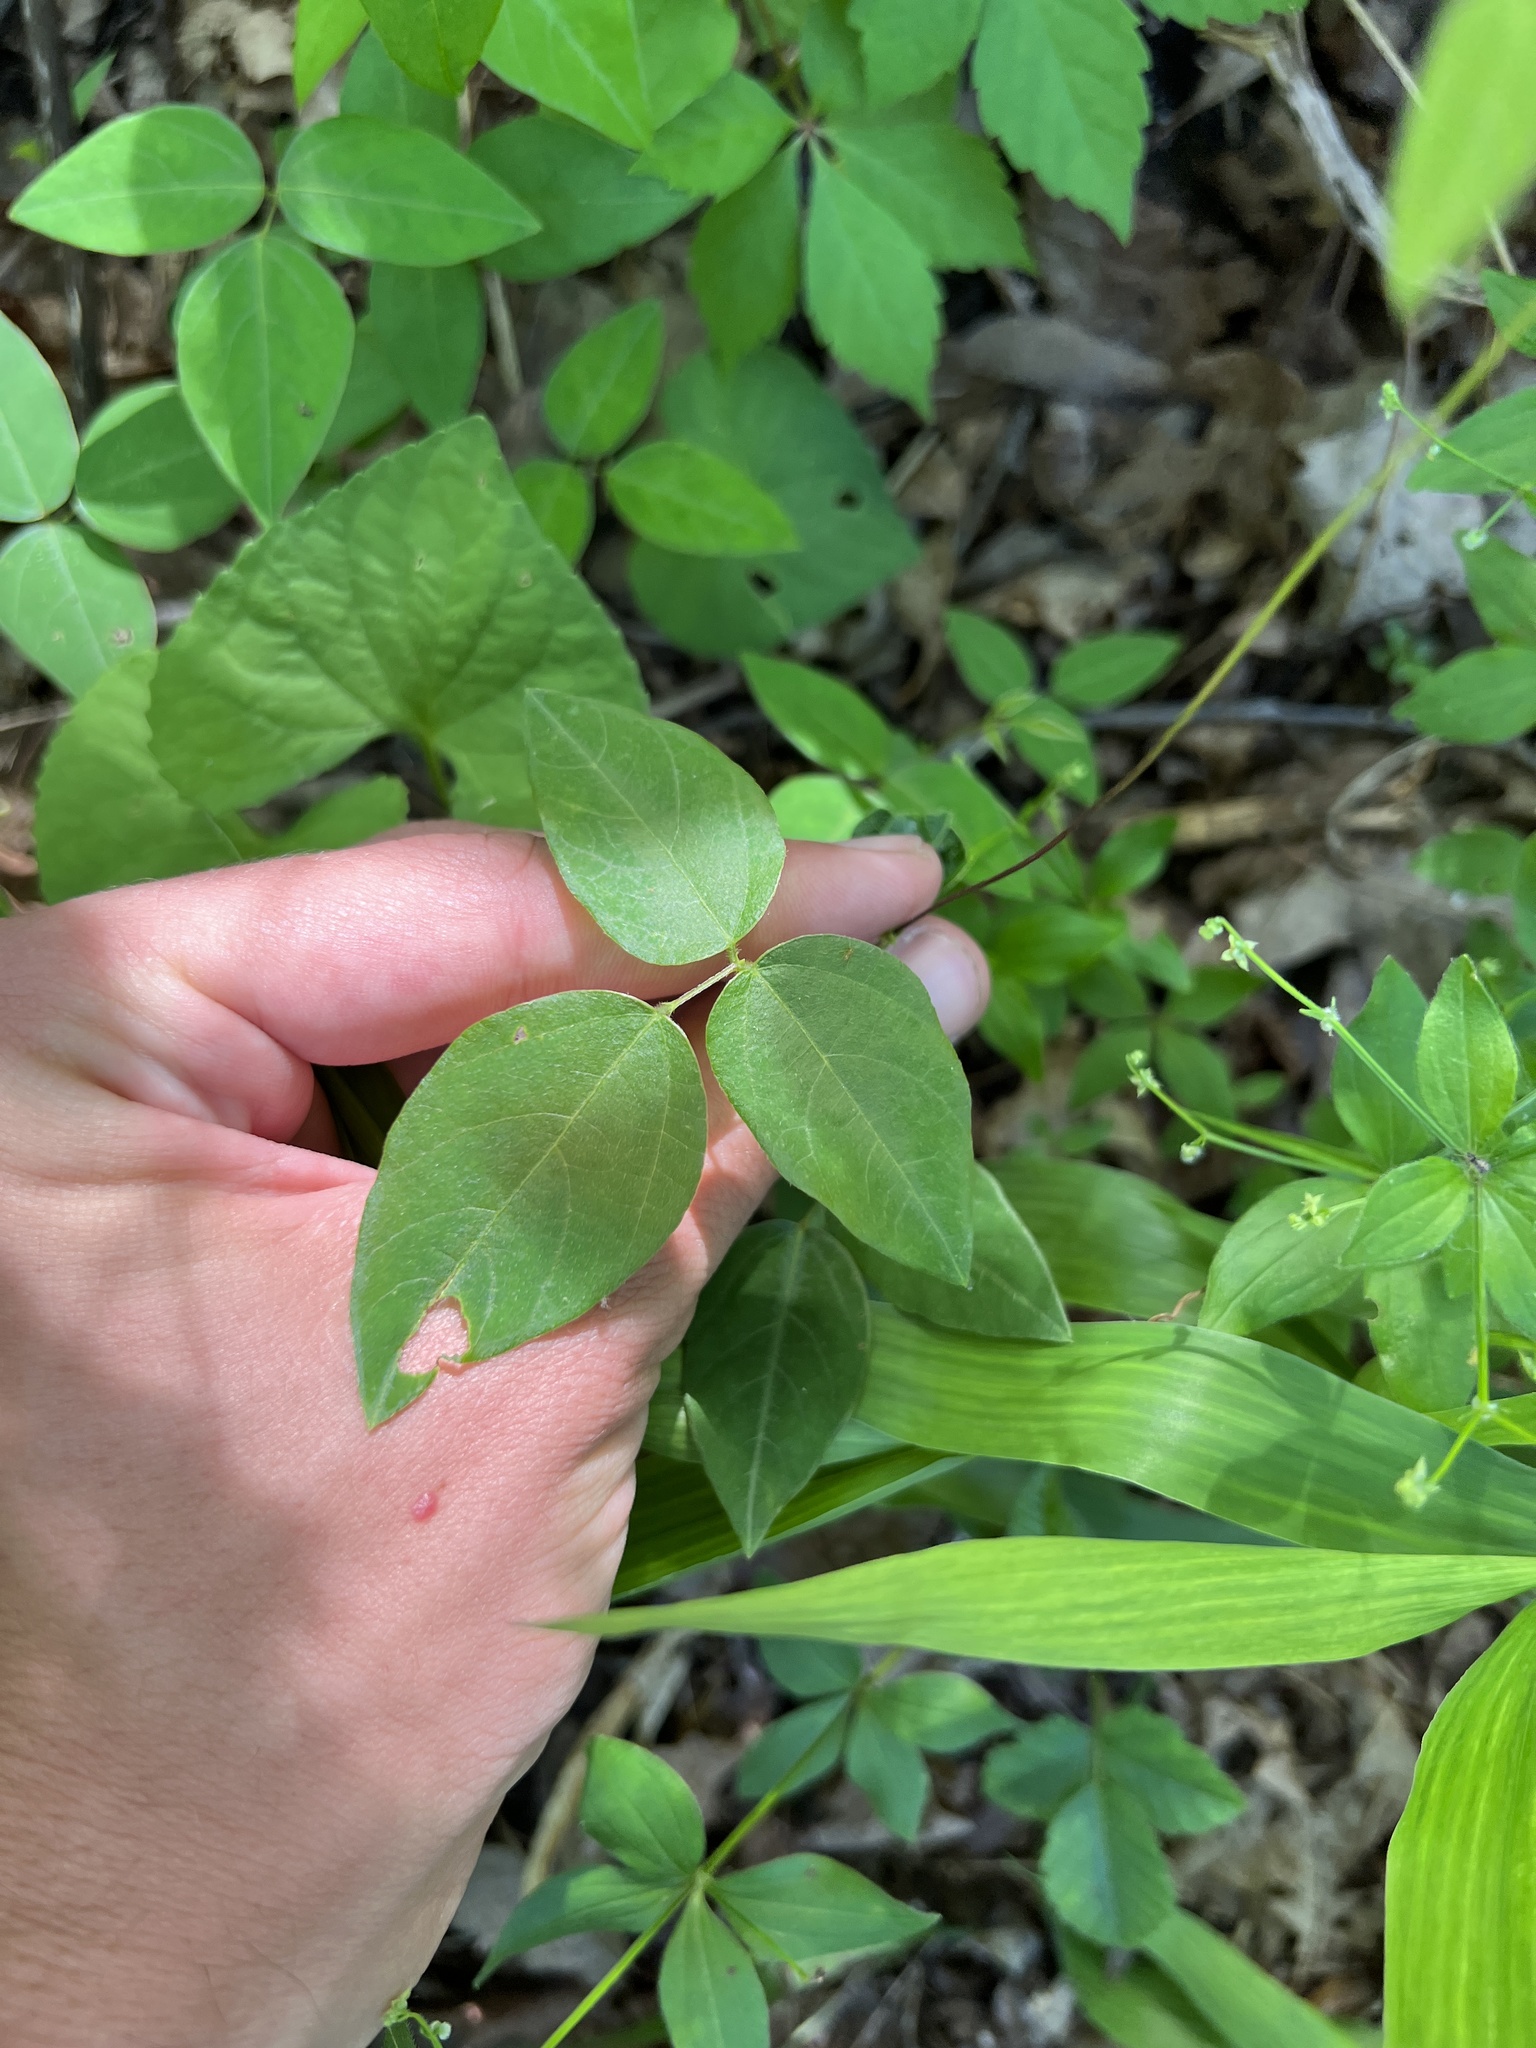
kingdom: Plantae
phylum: Tracheophyta
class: Magnoliopsida
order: Fabales
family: Fabaceae
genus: Clitoria
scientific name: Clitoria mariana
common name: Butterfly-pea
